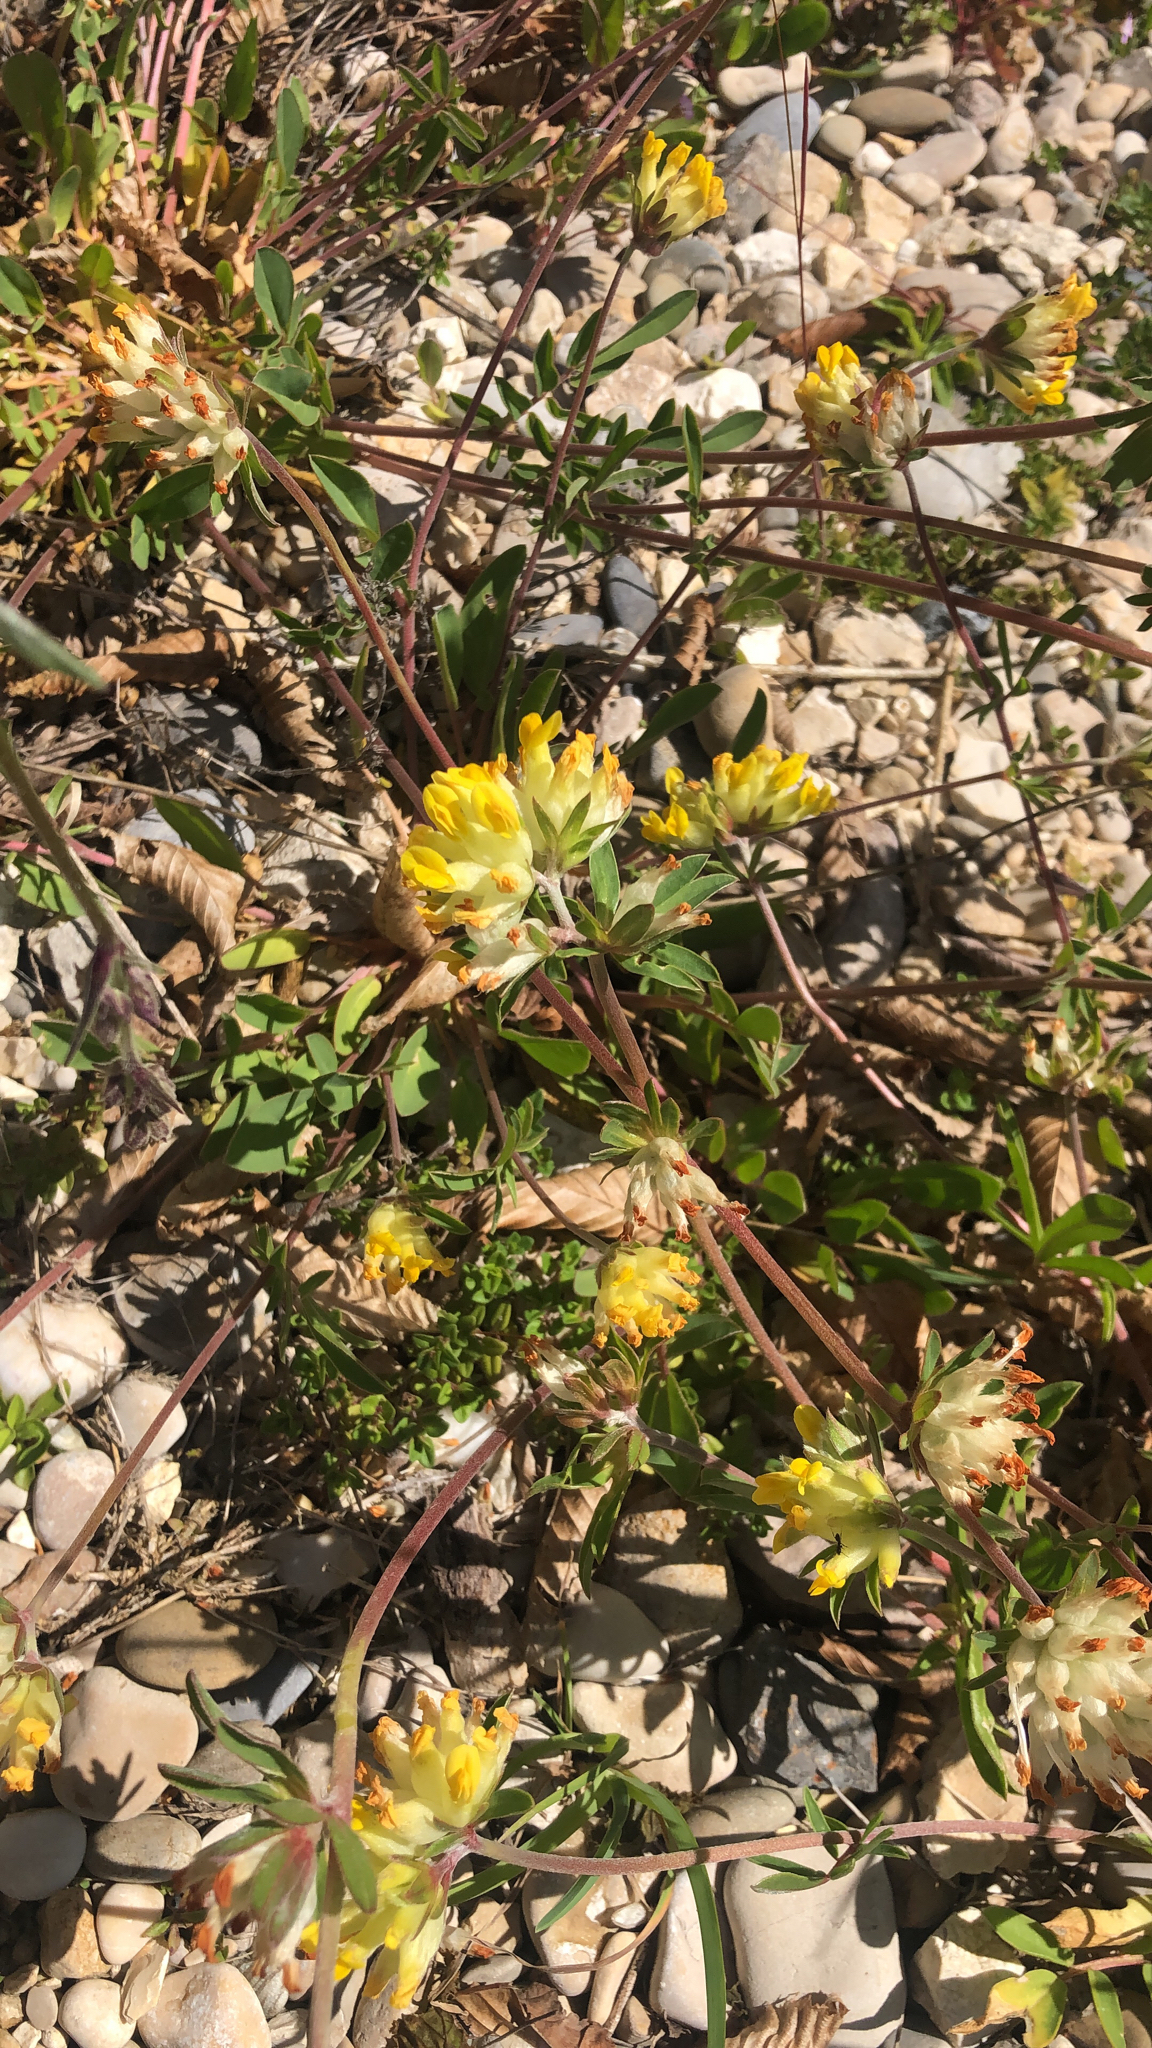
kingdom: Plantae
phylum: Tracheophyta
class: Magnoliopsida
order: Fabales
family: Fabaceae
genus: Anthyllis
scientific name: Anthyllis vulneraria
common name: Kidney vetch
